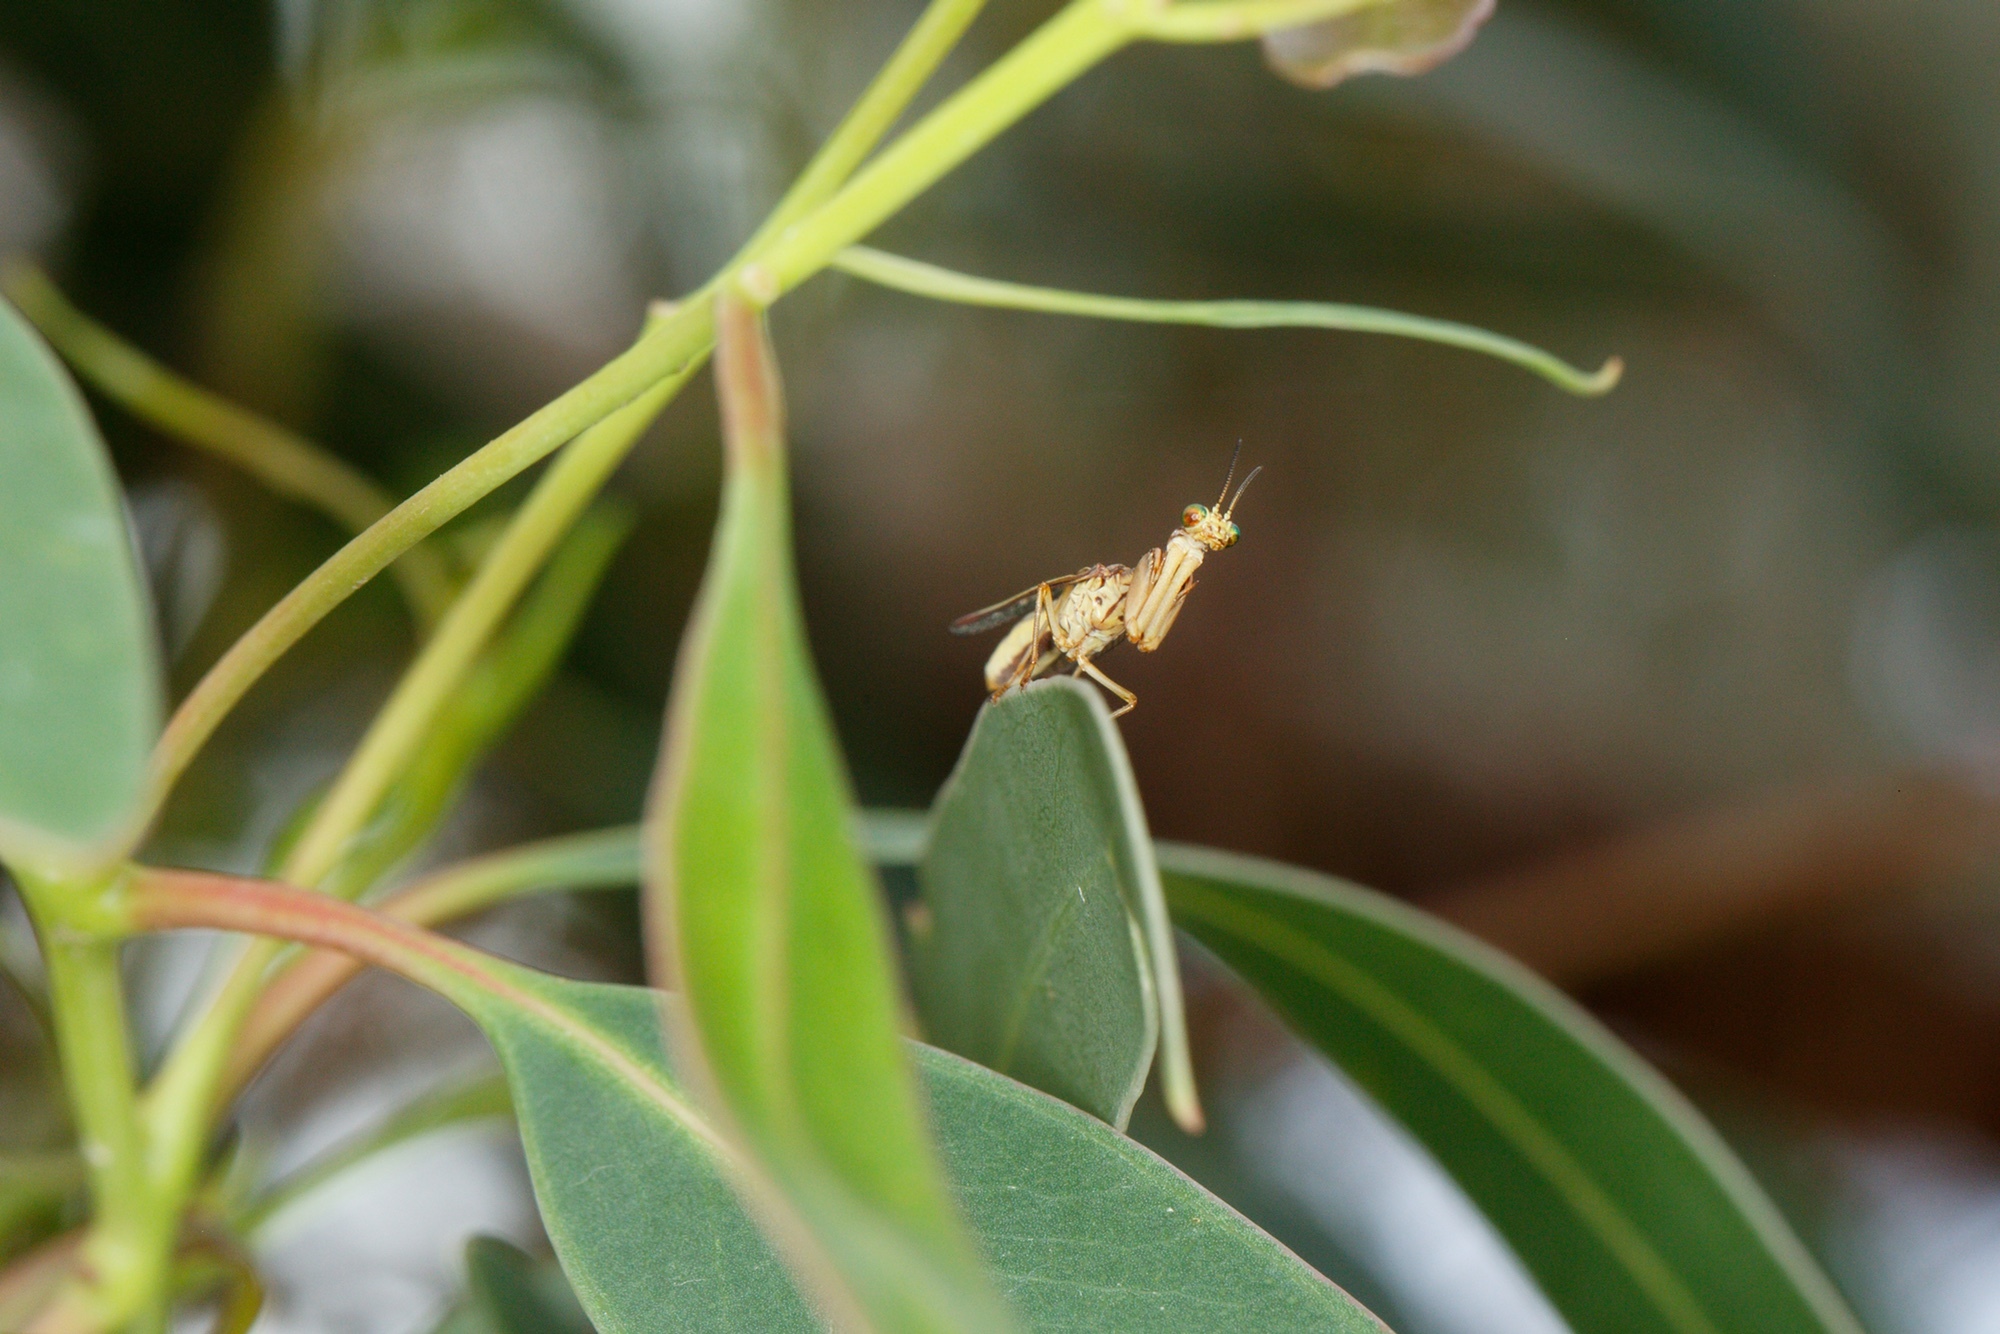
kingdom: Animalia
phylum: Arthropoda
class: Insecta
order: Neuroptera
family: Mantispidae
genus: Campion
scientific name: Campion impressus
